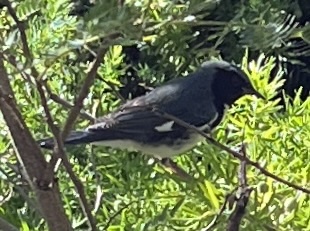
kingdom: Animalia
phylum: Chordata
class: Aves
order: Passeriformes
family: Parulidae
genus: Setophaga
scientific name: Setophaga caerulescens
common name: Black-throated blue warbler
